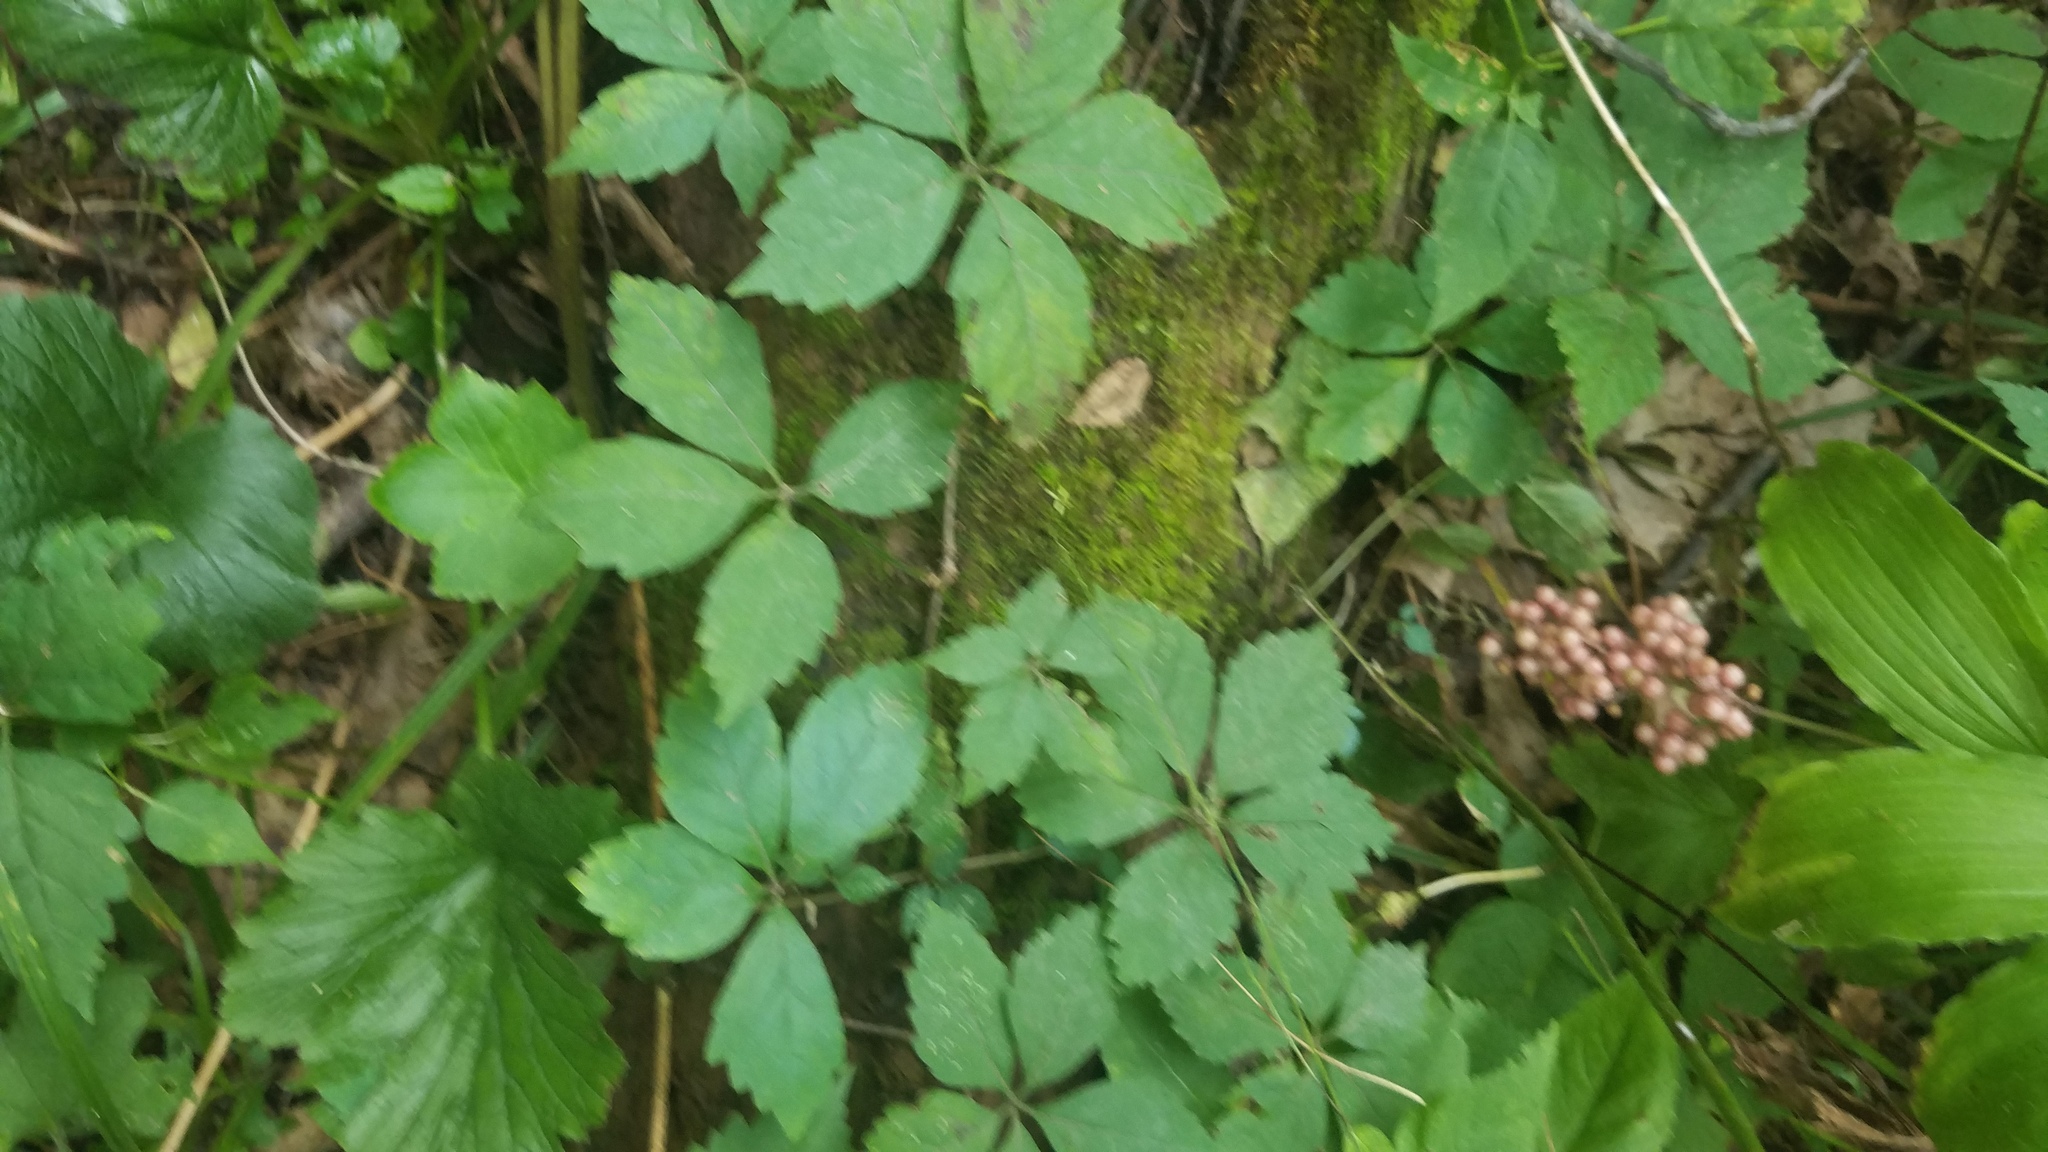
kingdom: Plantae
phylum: Tracheophyta
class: Magnoliopsida
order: Vitales
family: Vitaceae
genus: Parthenocissus
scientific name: Parthenocissus quinquefolia
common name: Virginia-creeper
